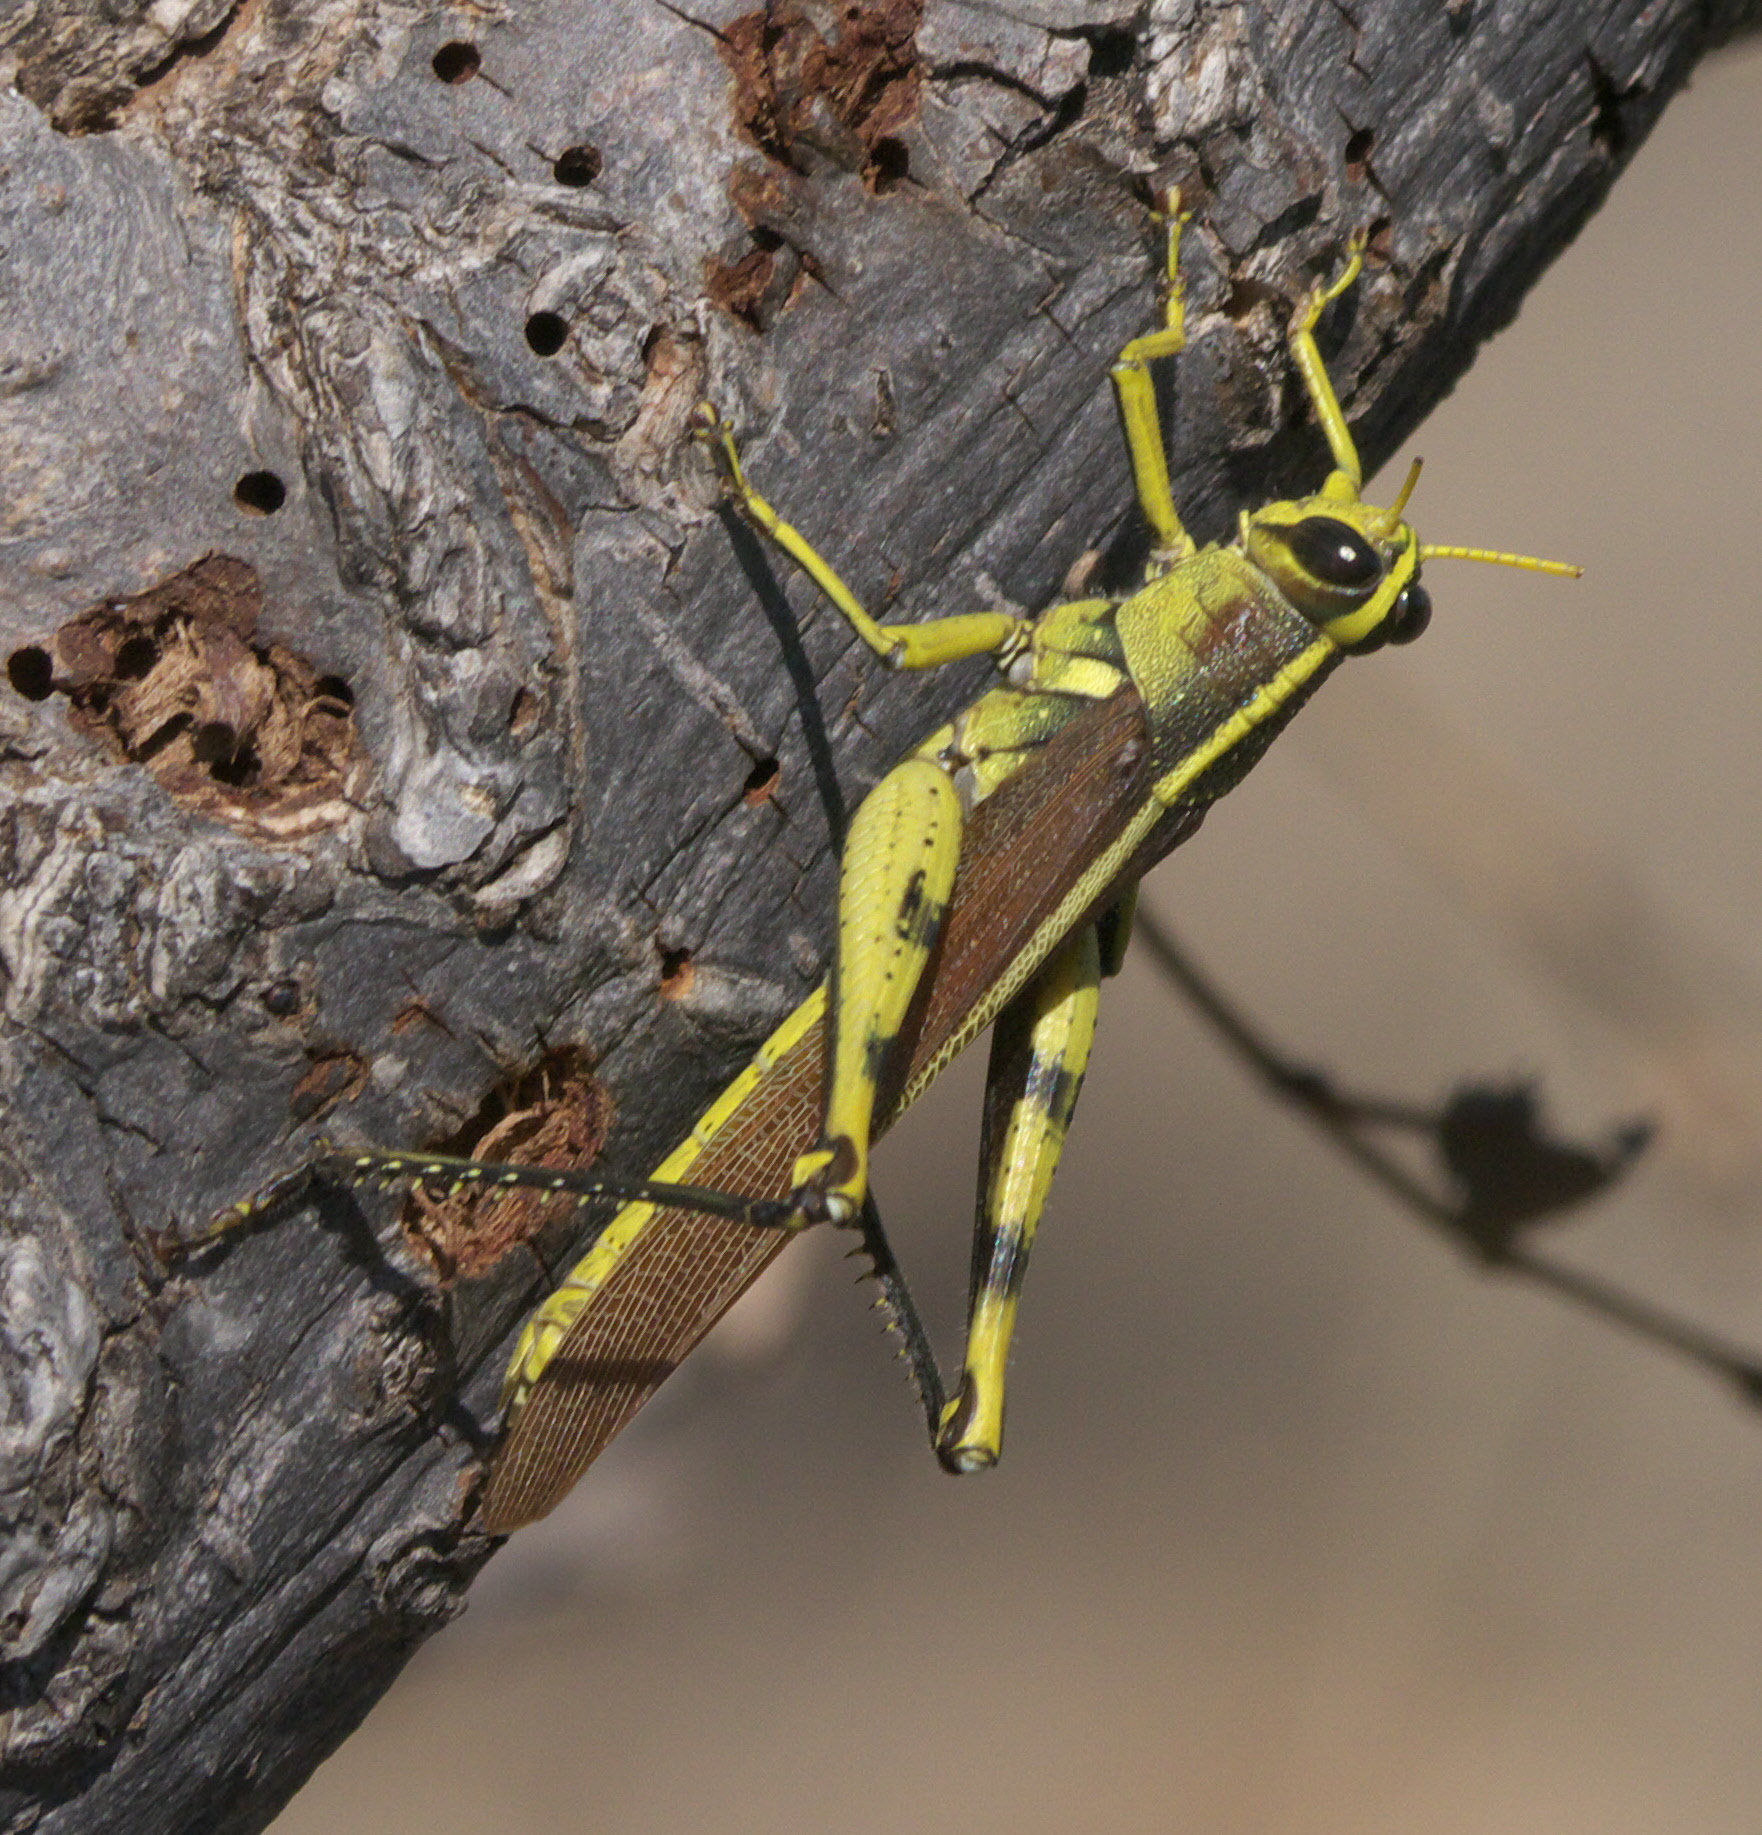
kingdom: Animalia
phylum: Arthropoda
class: Insecta
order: Orthoptera
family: Acrididae
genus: Schistocerca
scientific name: Schistocerca obscura
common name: Obscure bird grasshopper
